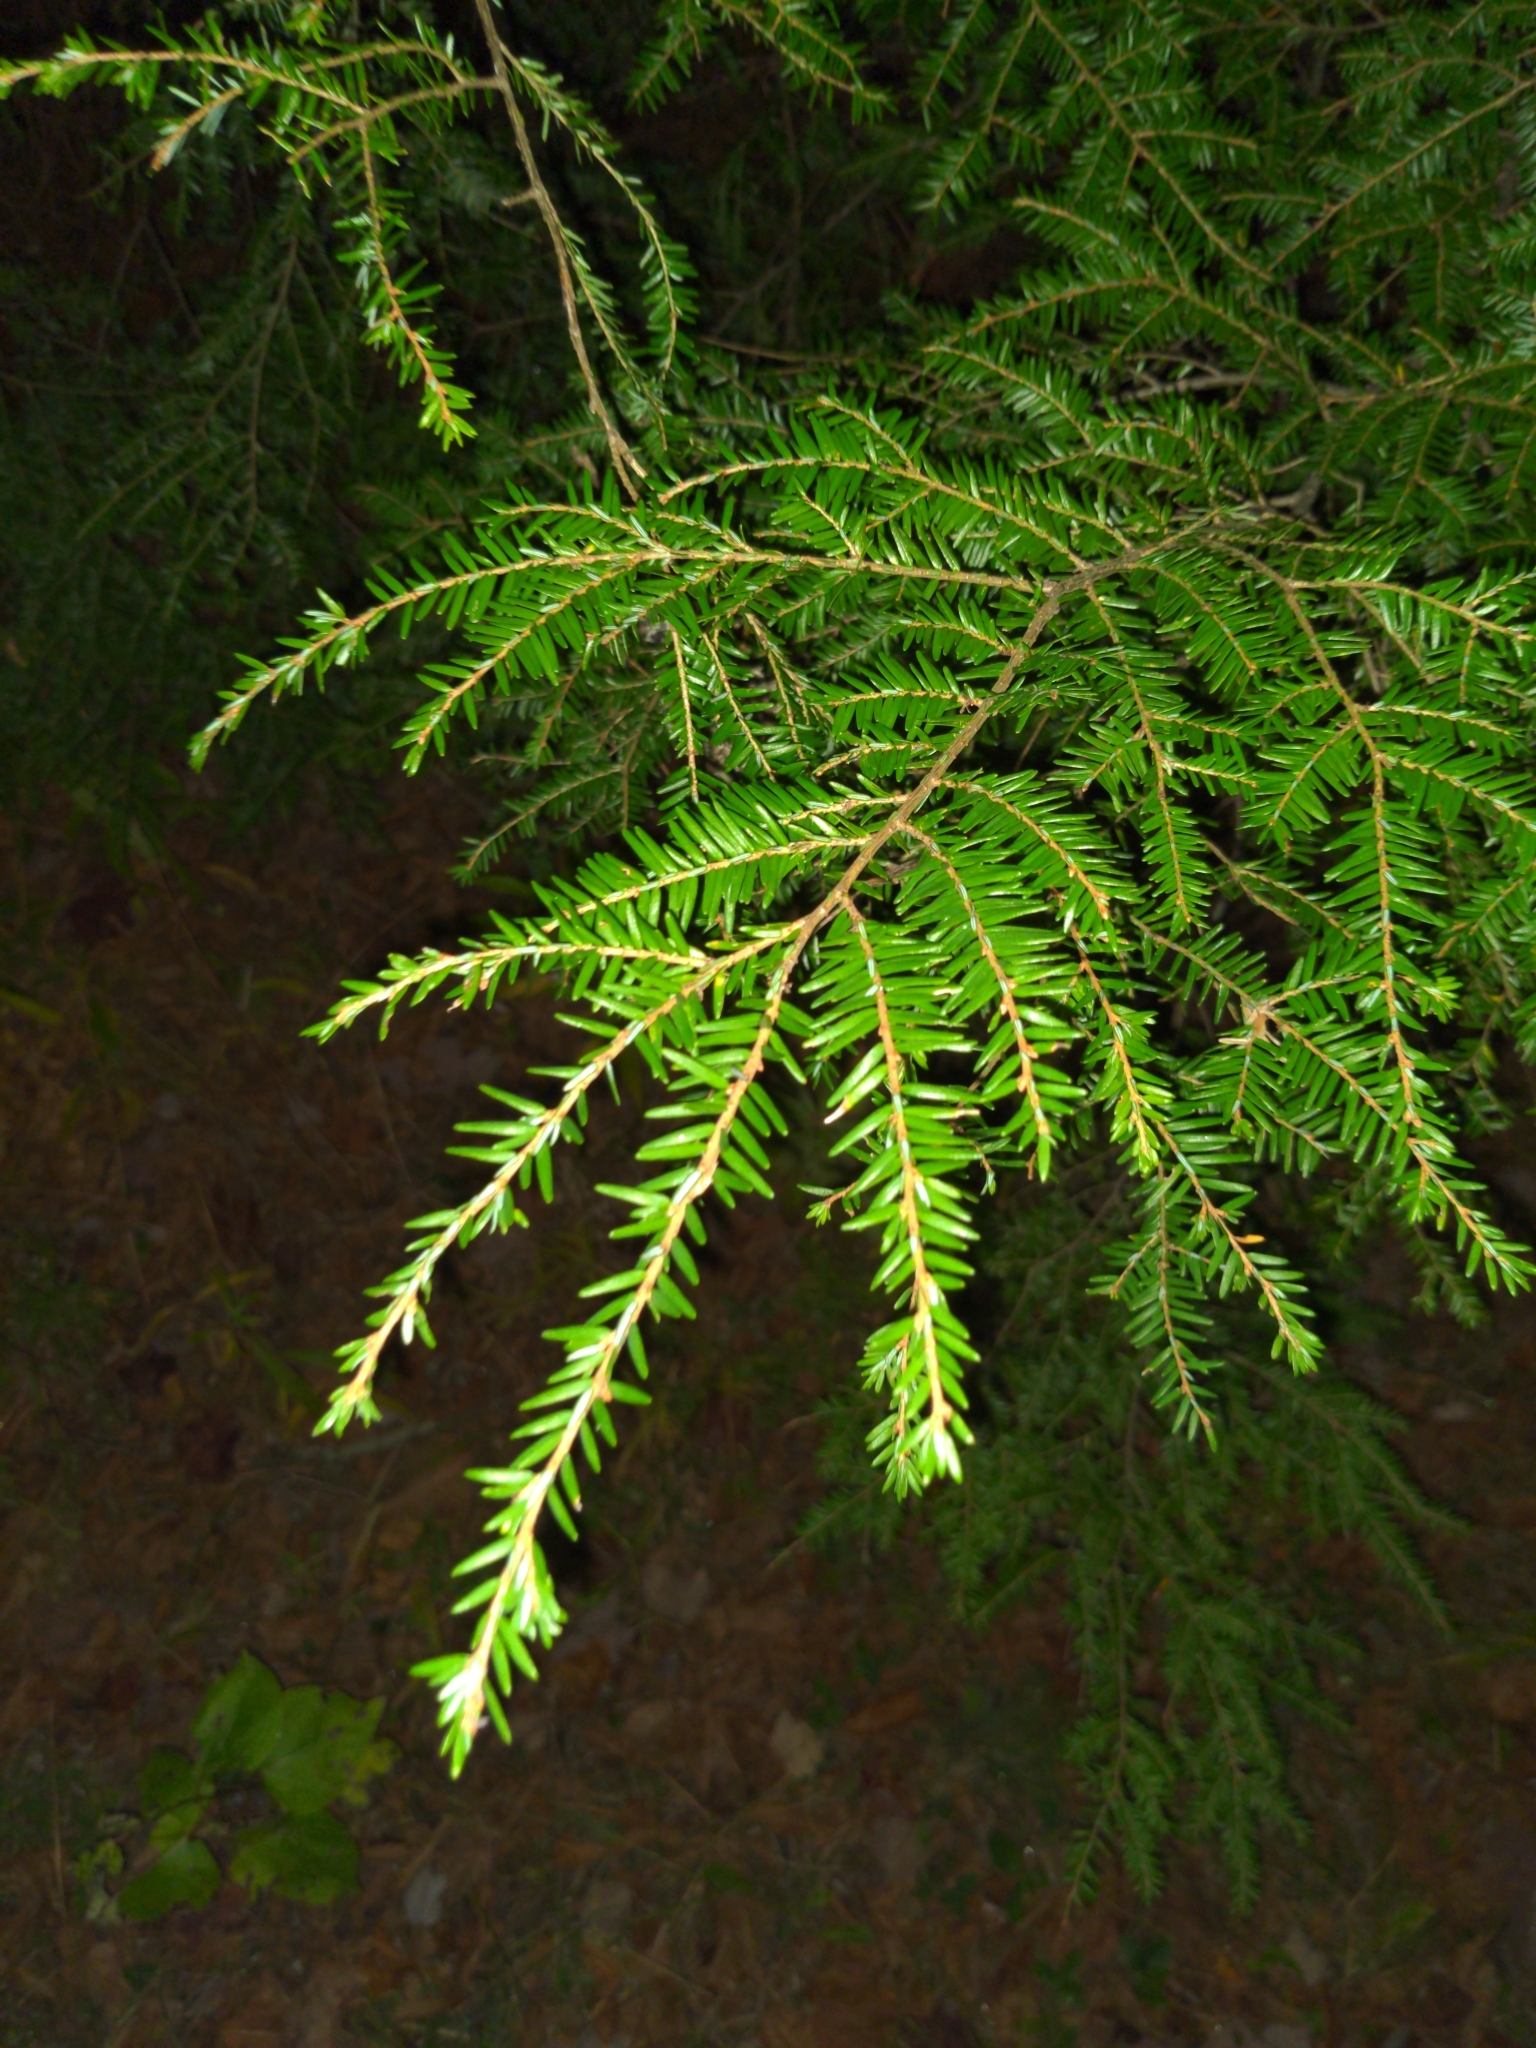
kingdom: Plantae
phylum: Tracheophyta
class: Pinopsida
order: Pinales
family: Pinaceae
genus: Tsuga
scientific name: Tsuga canadensis
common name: Eastern hemlock
